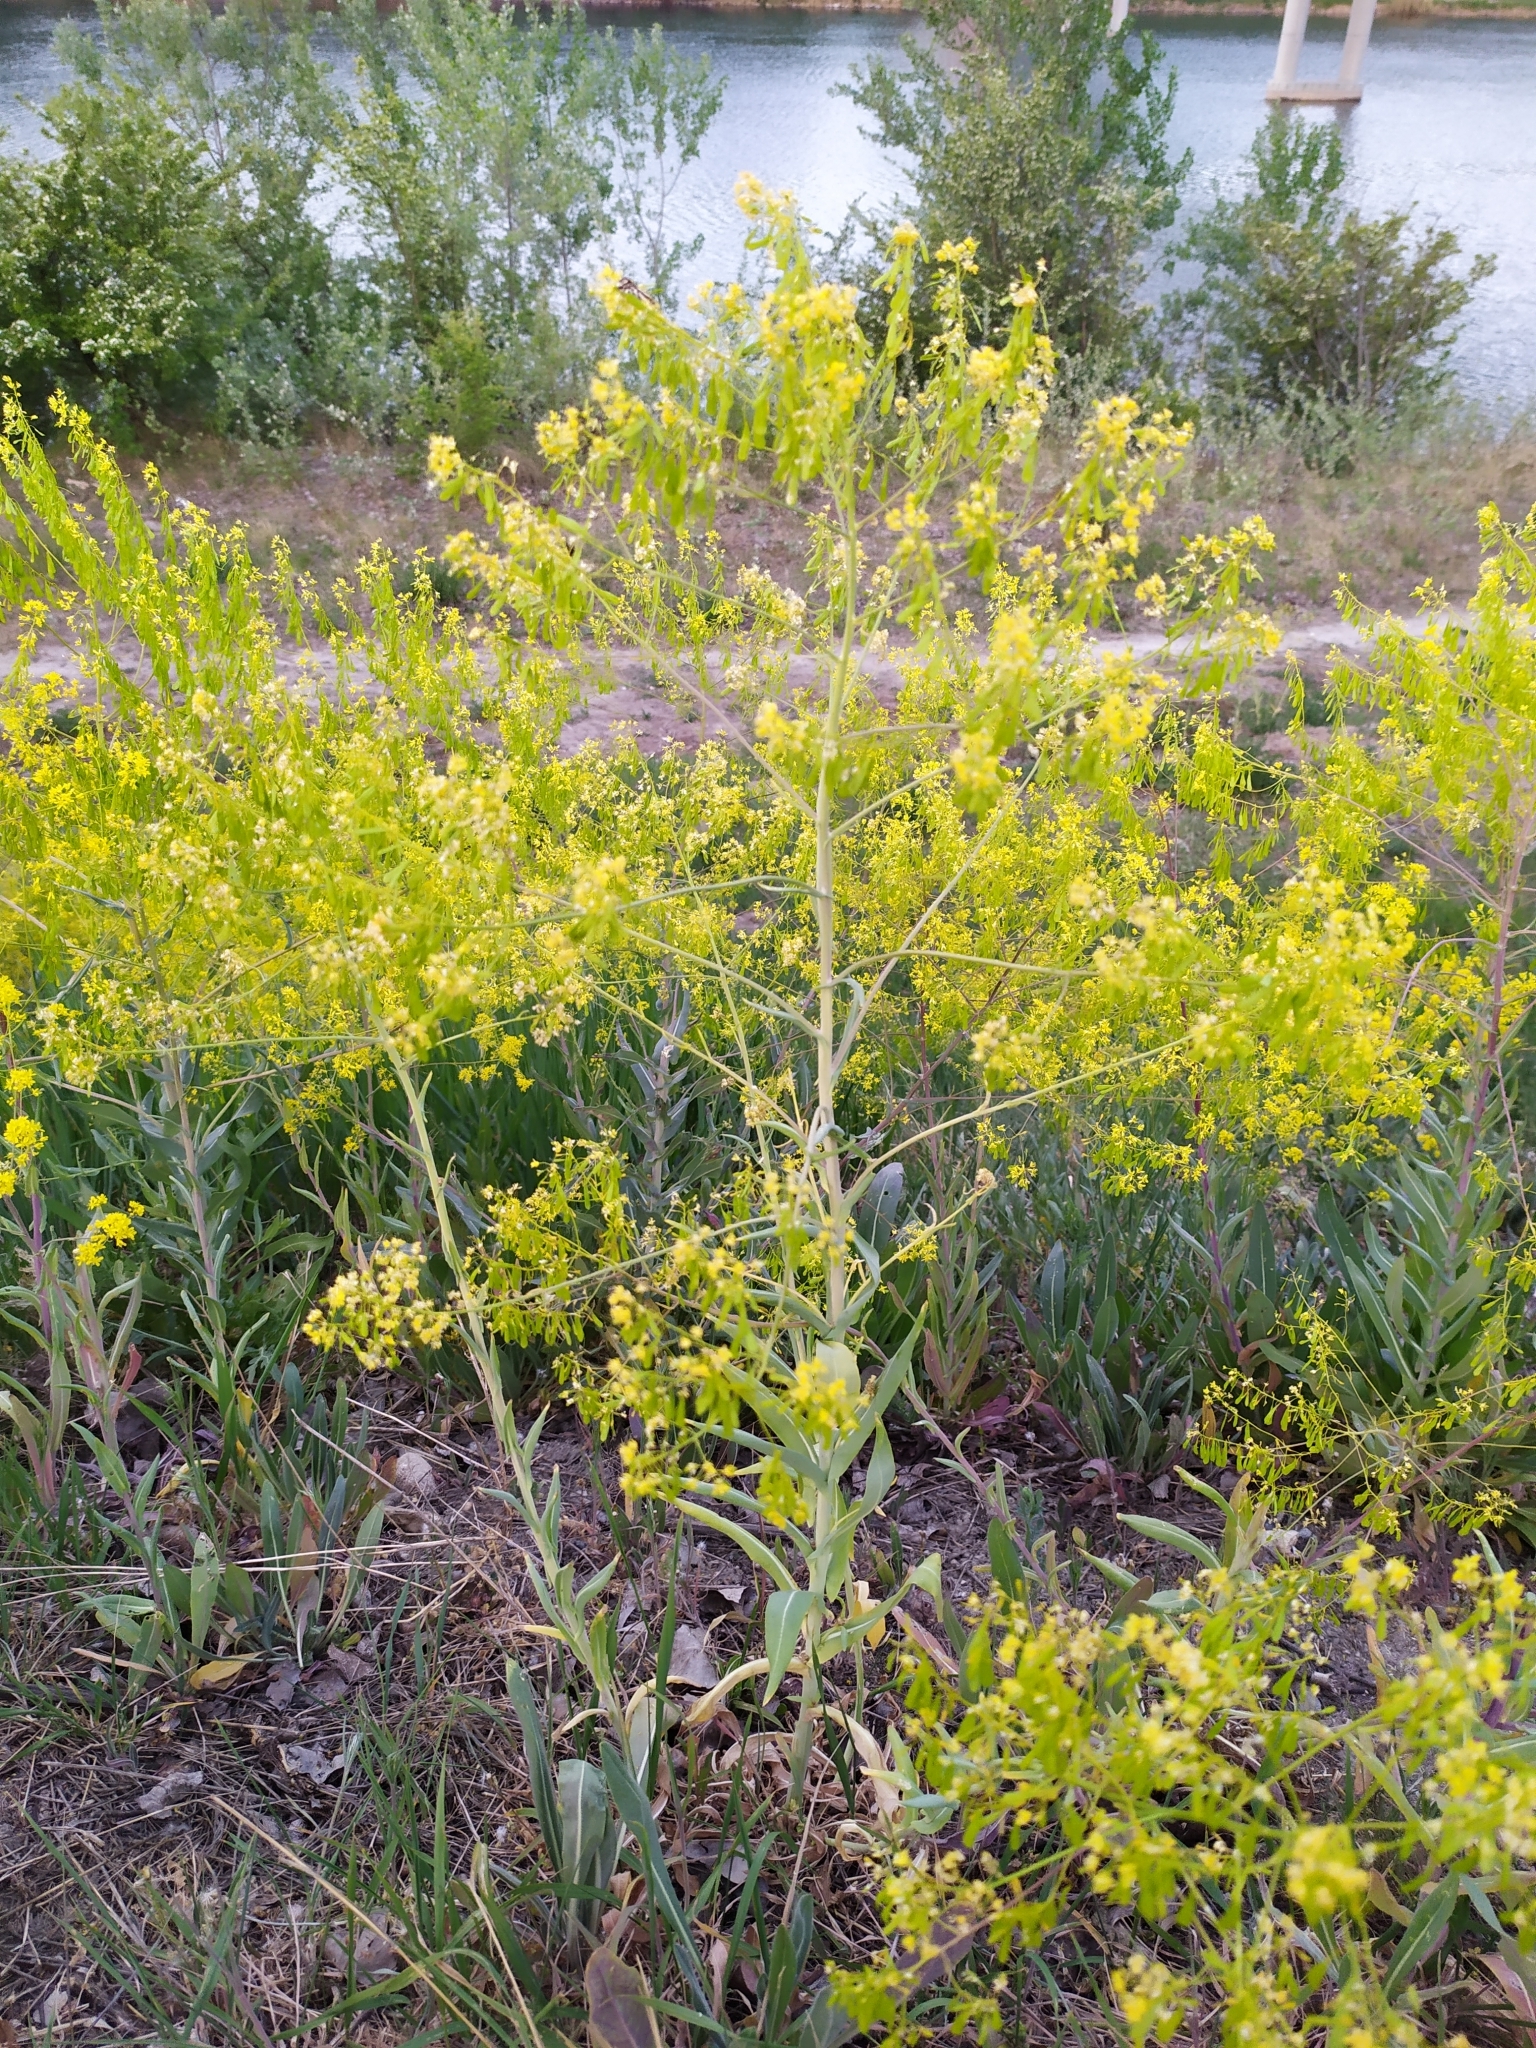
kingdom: Plantae
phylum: Tracheophyta
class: Magnoliopsida
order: Brassicales
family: Brassicaceae
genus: Isatis
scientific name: Isatis tinctoria
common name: Woad
